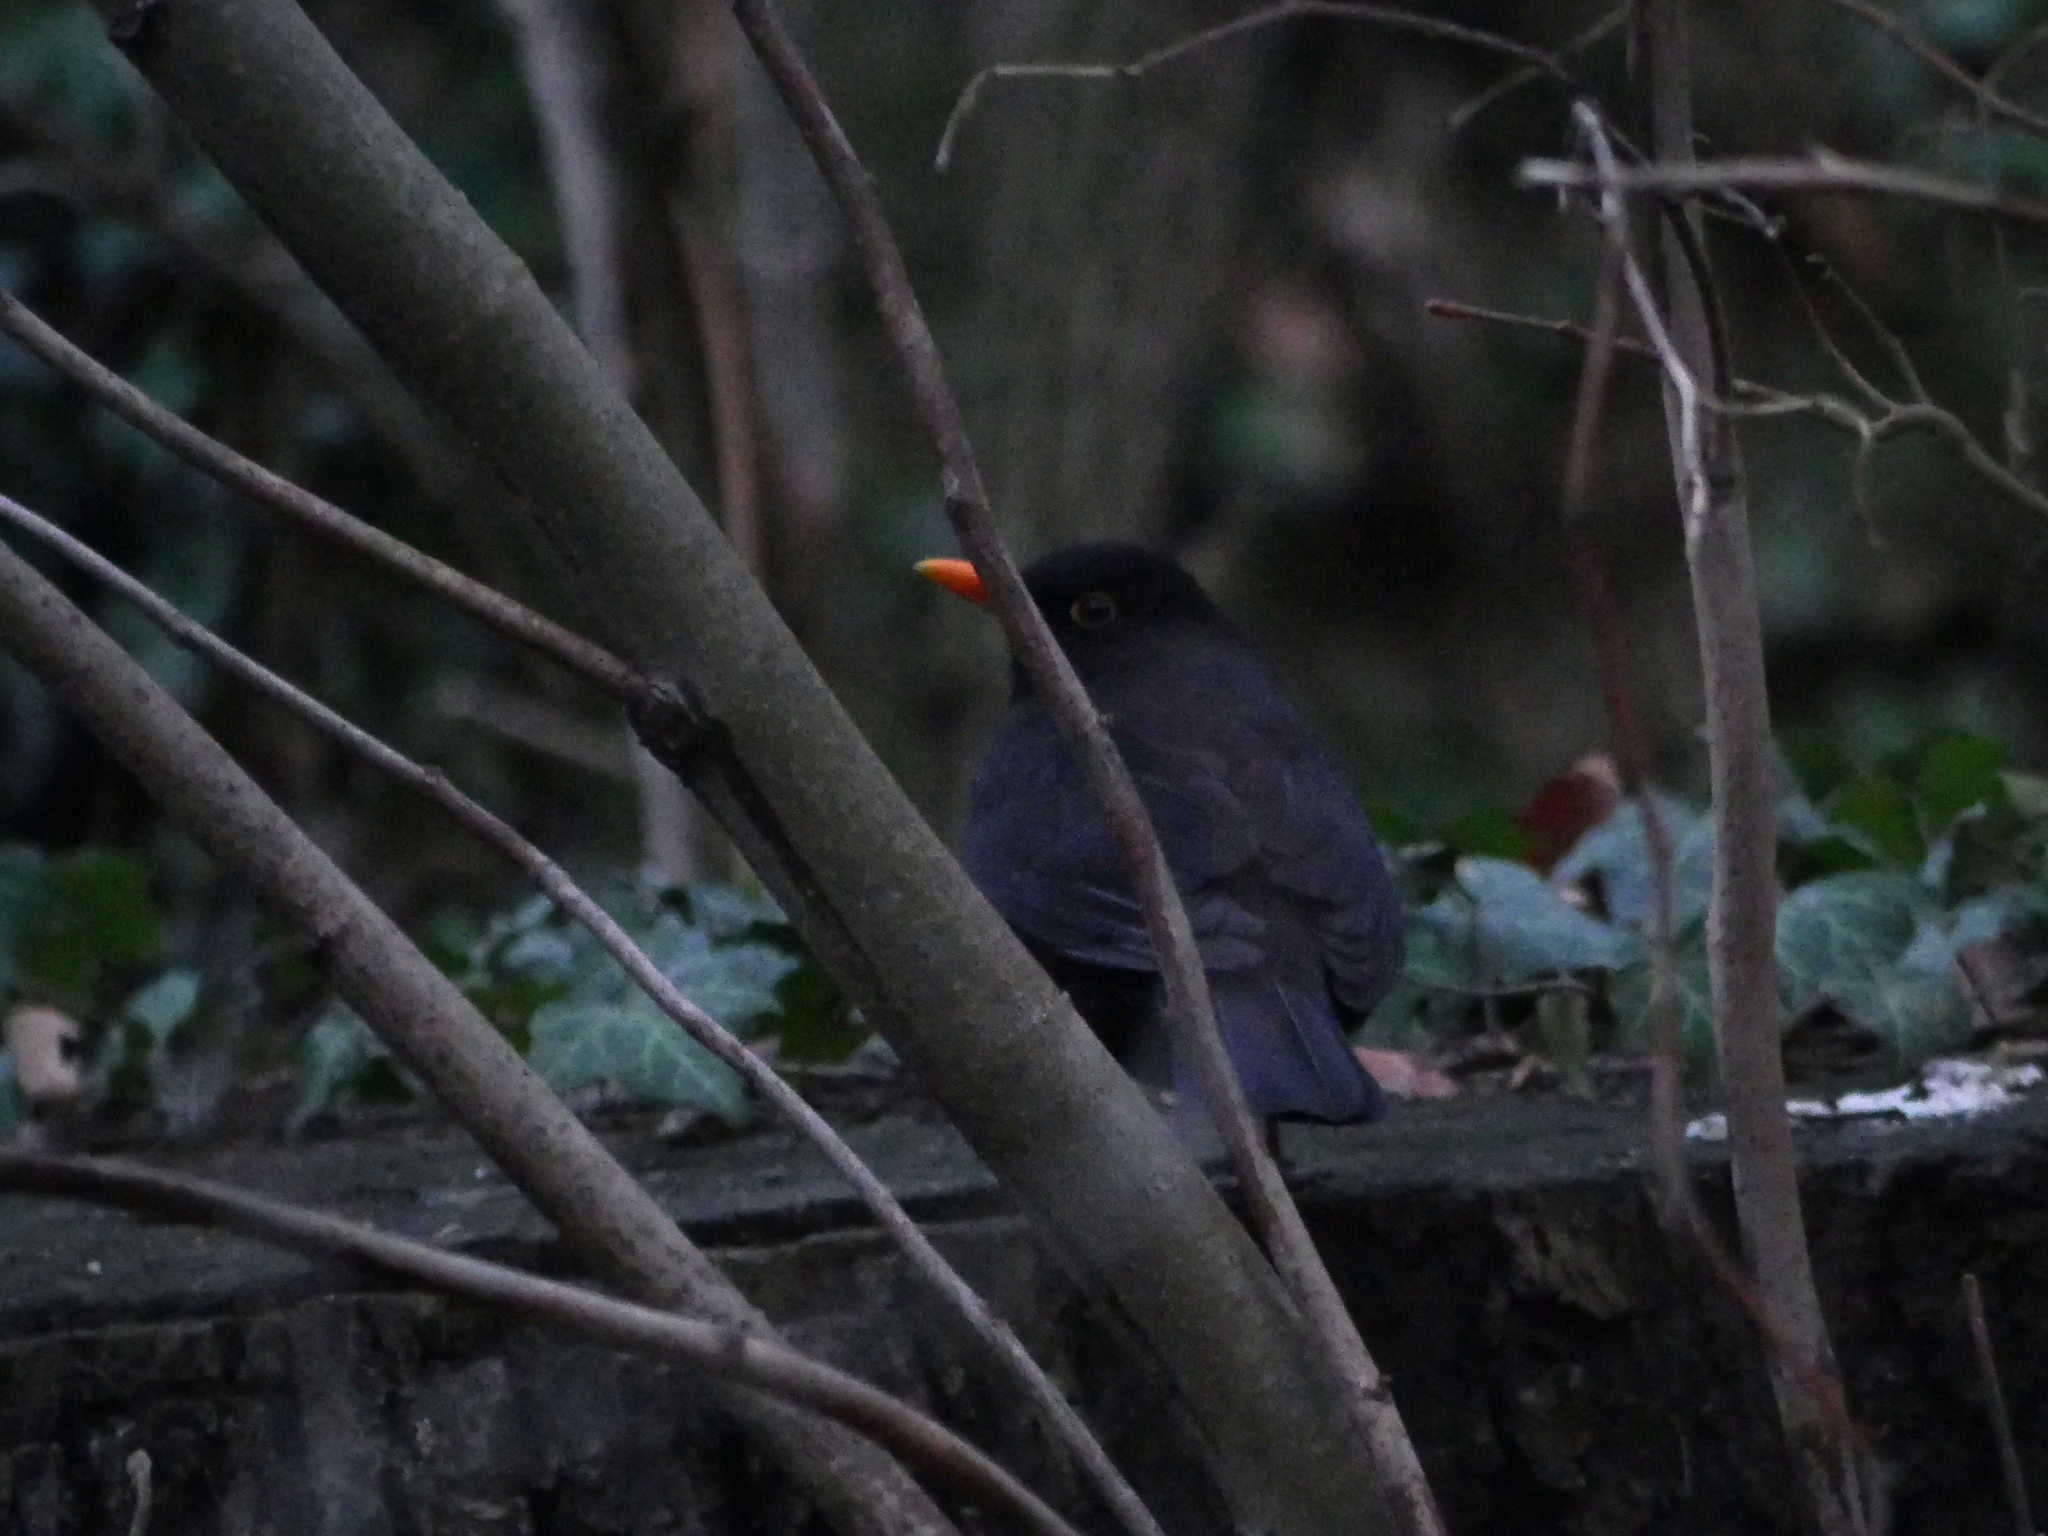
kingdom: Animalia
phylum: Chordata
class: Aves
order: Passeriformes
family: Turdidae
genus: Turdus
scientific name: Turdus merula
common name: Common blackbird
